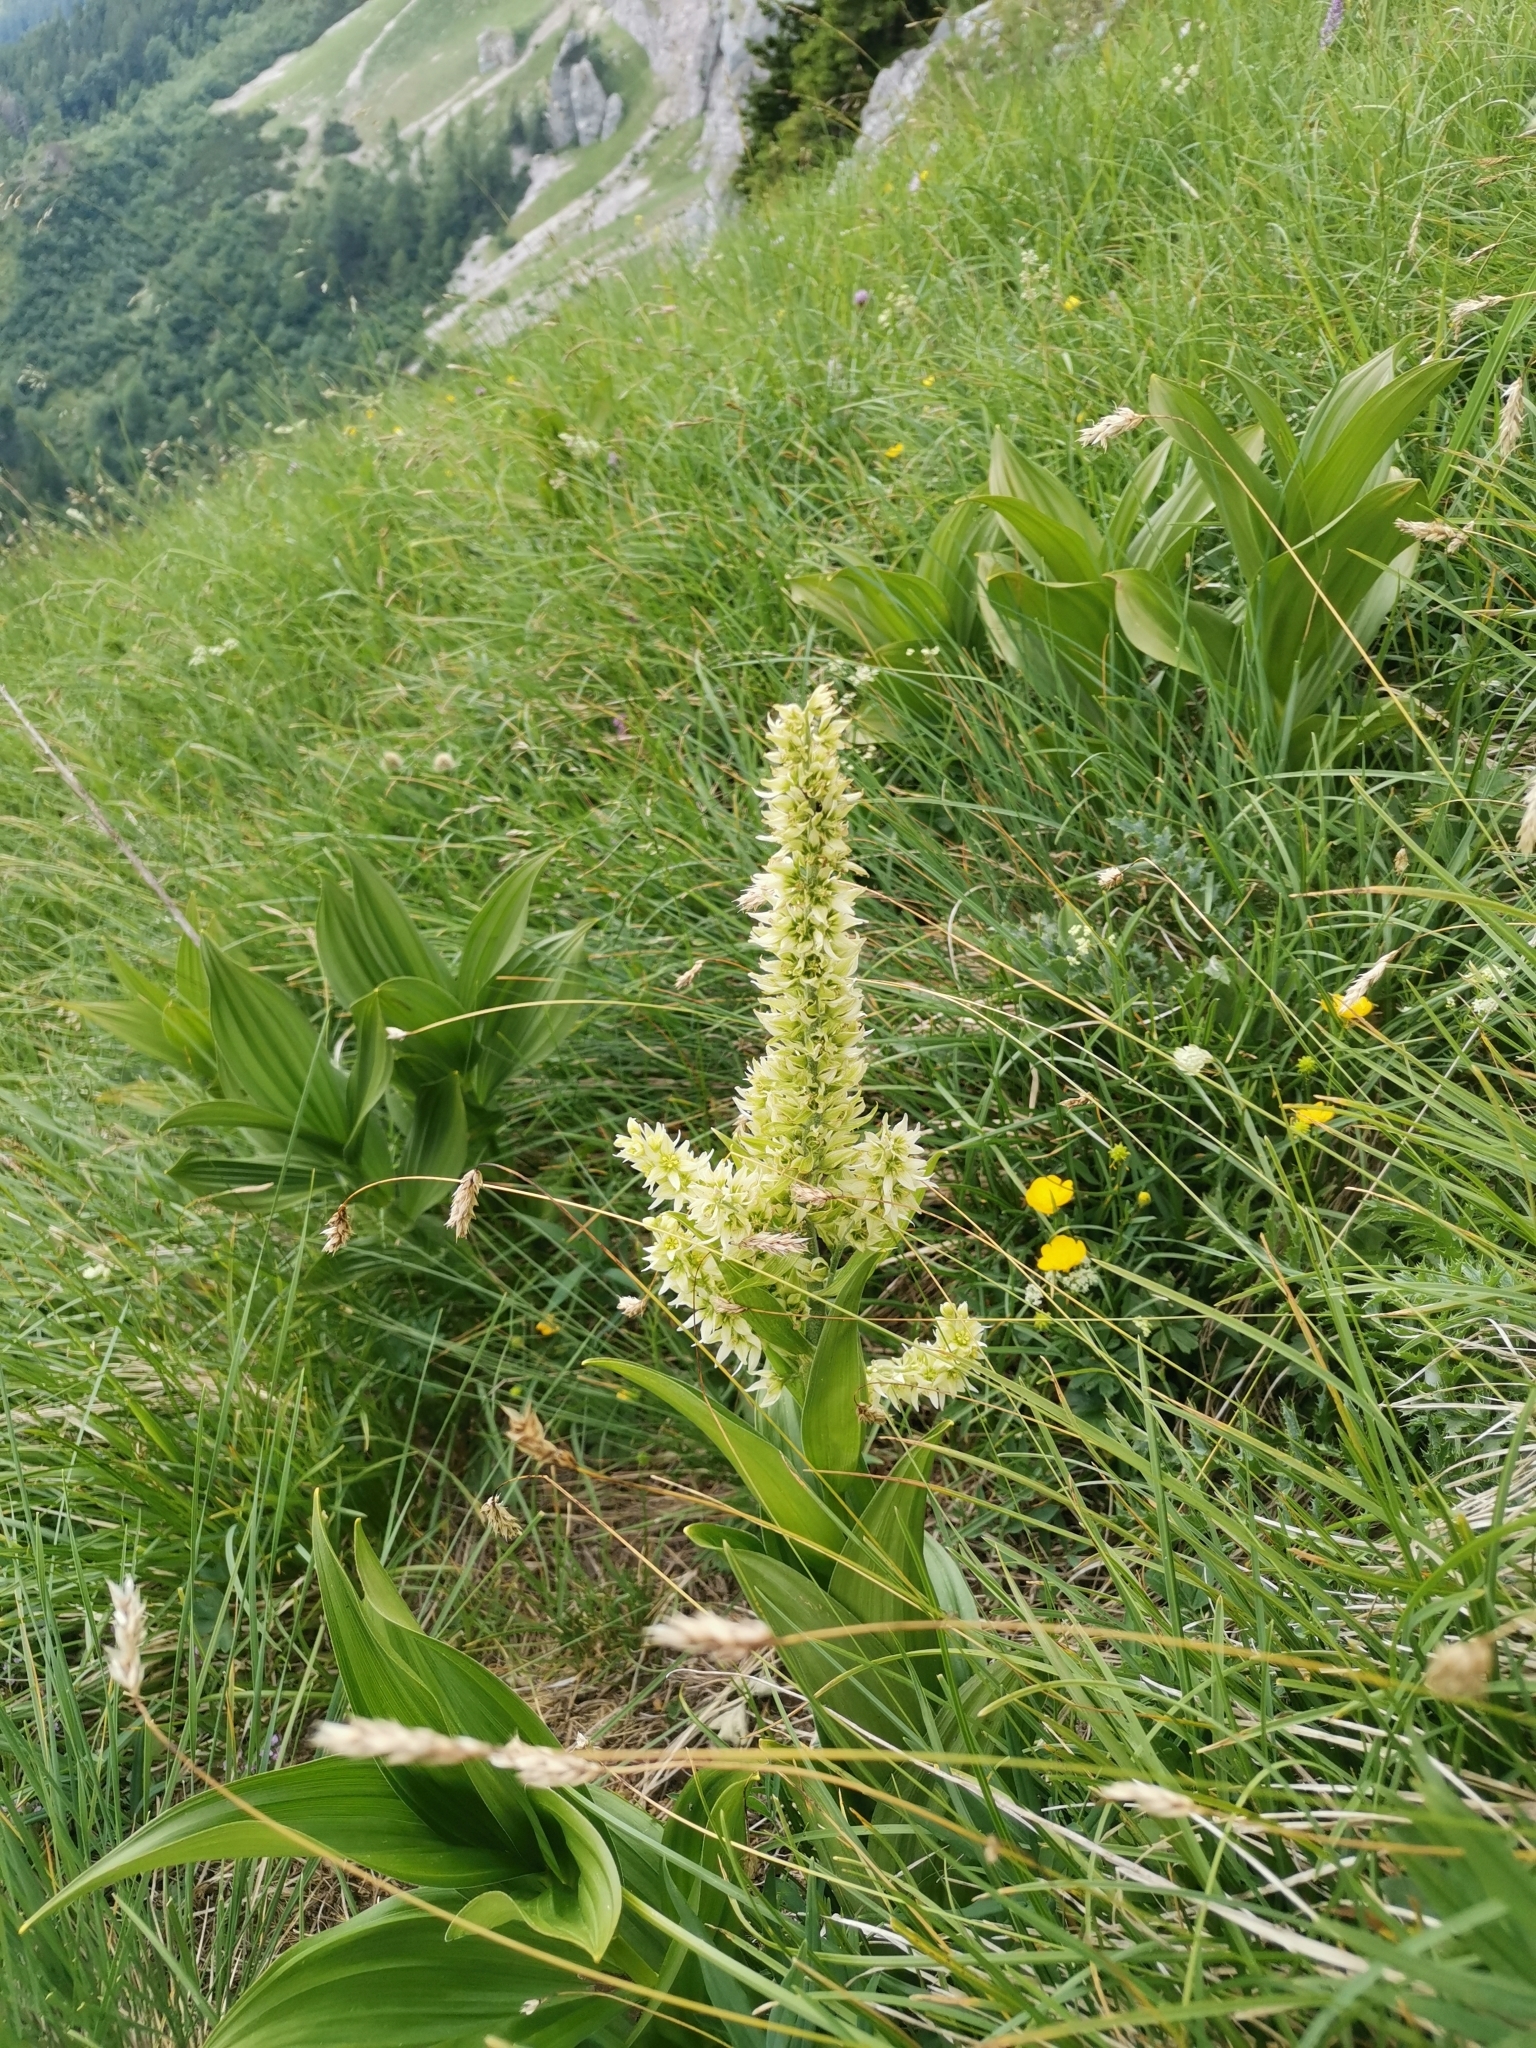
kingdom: Plantae
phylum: Tracheophyta
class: Liliopsida
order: Liliales
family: Melanthiaceae
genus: Veratrum
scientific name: Veratrum album
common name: White veratrum
